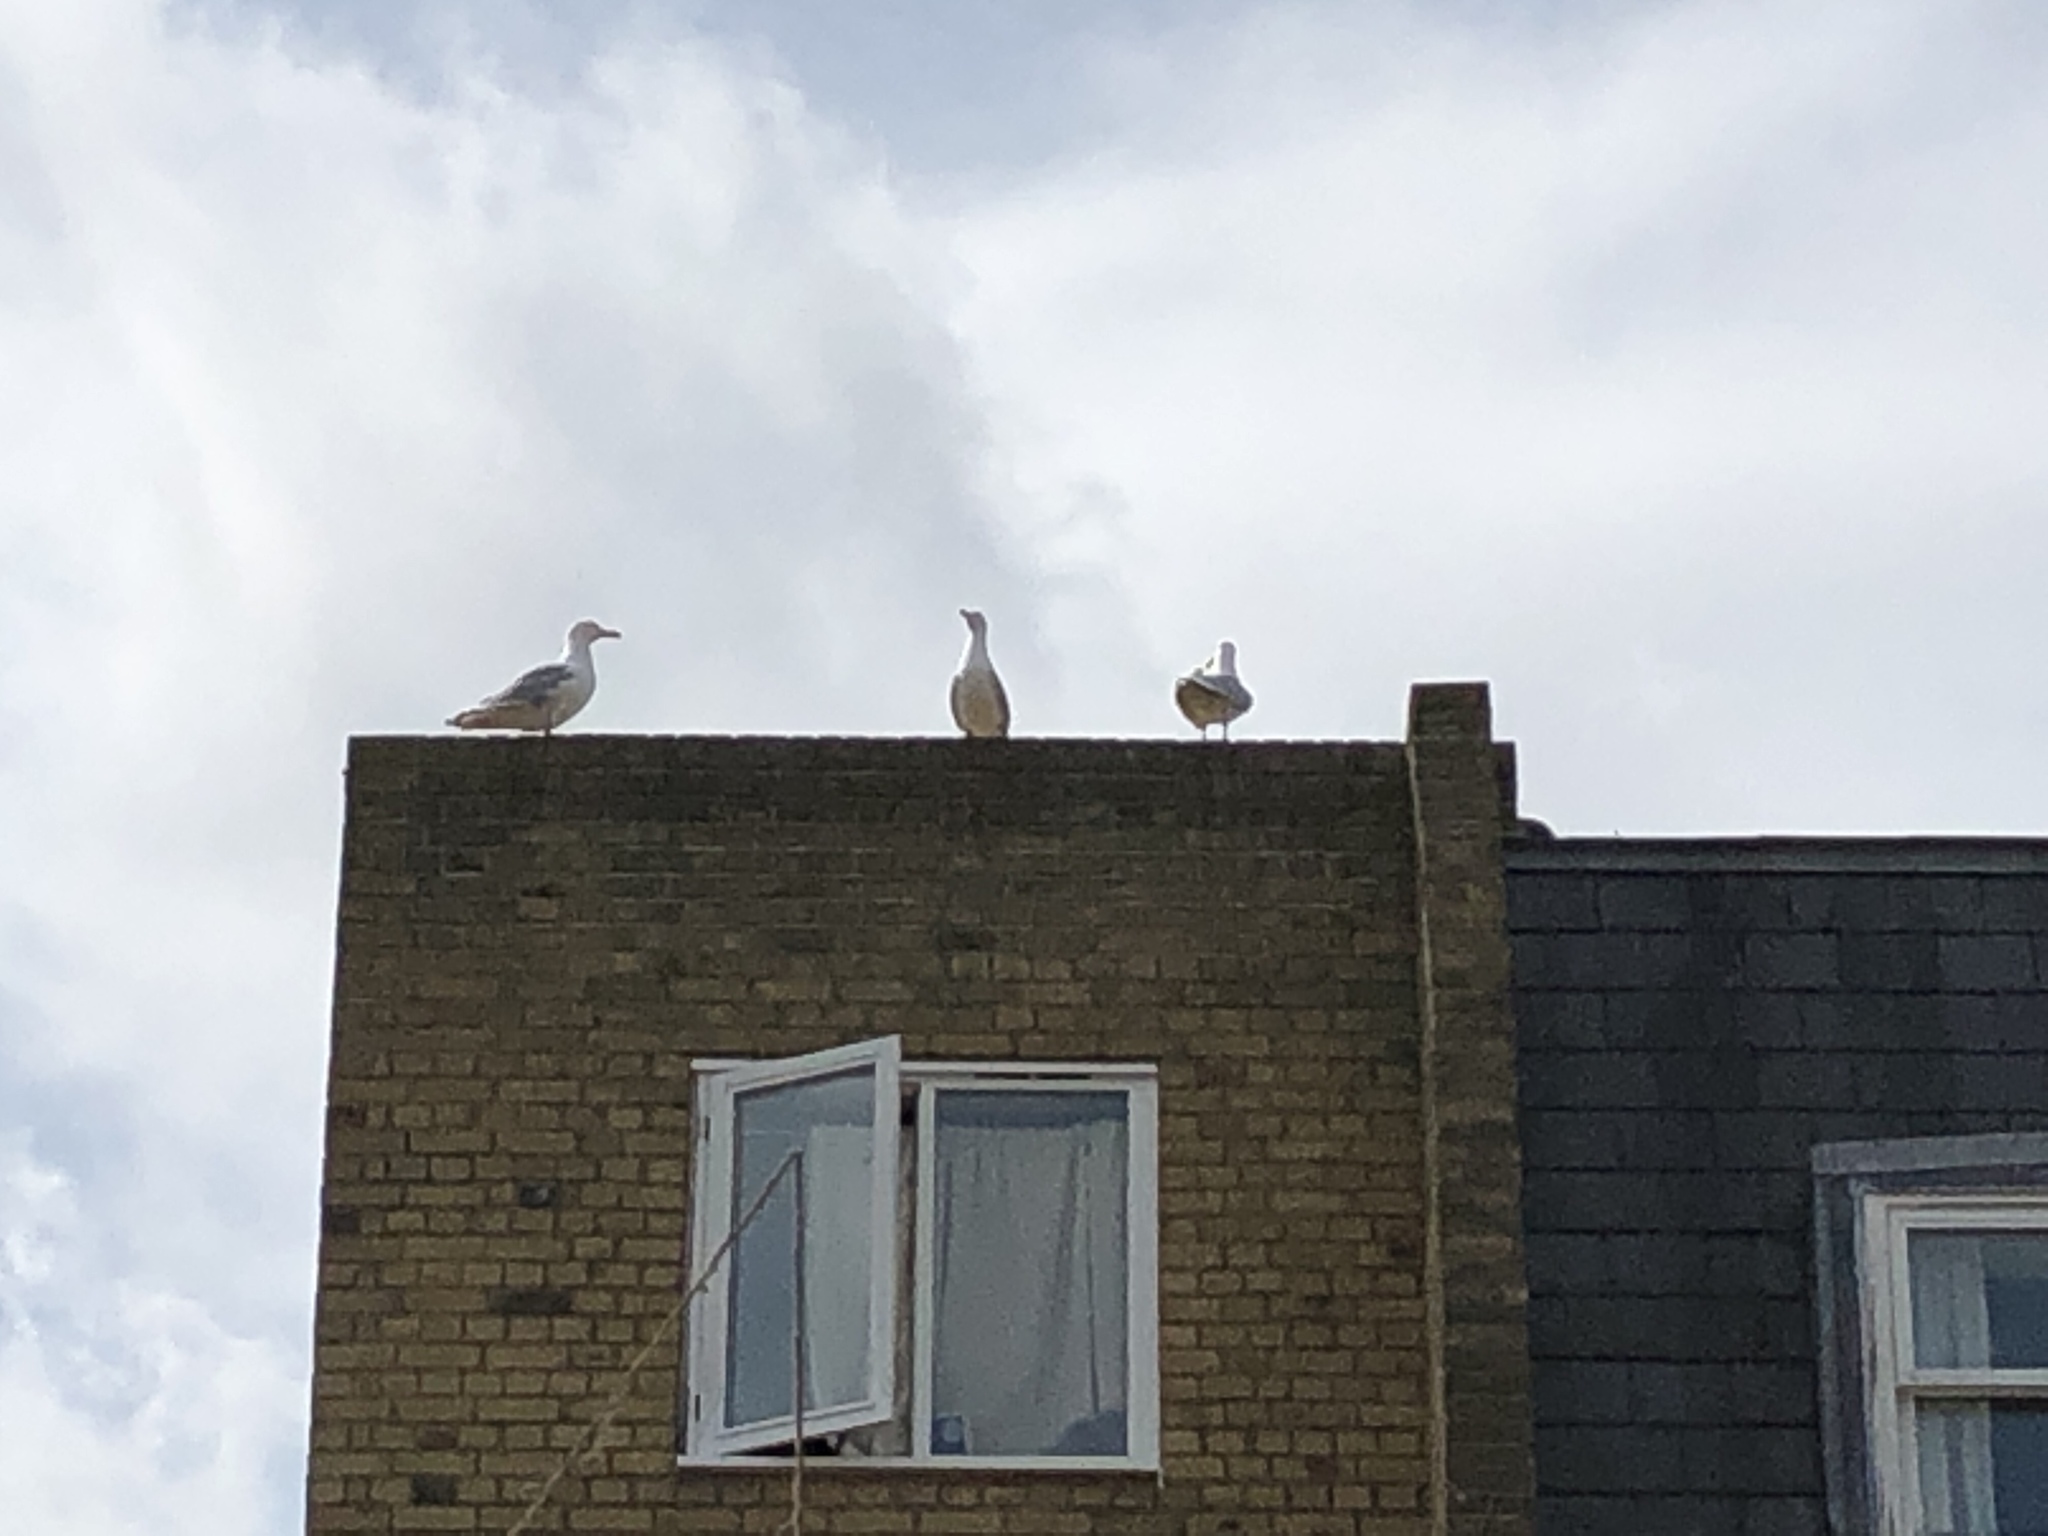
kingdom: Animalia
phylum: Chordata
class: Aves
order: Charadriiformes
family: Laridae
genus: Larus
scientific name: Larus argentatus
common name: Herring gull
